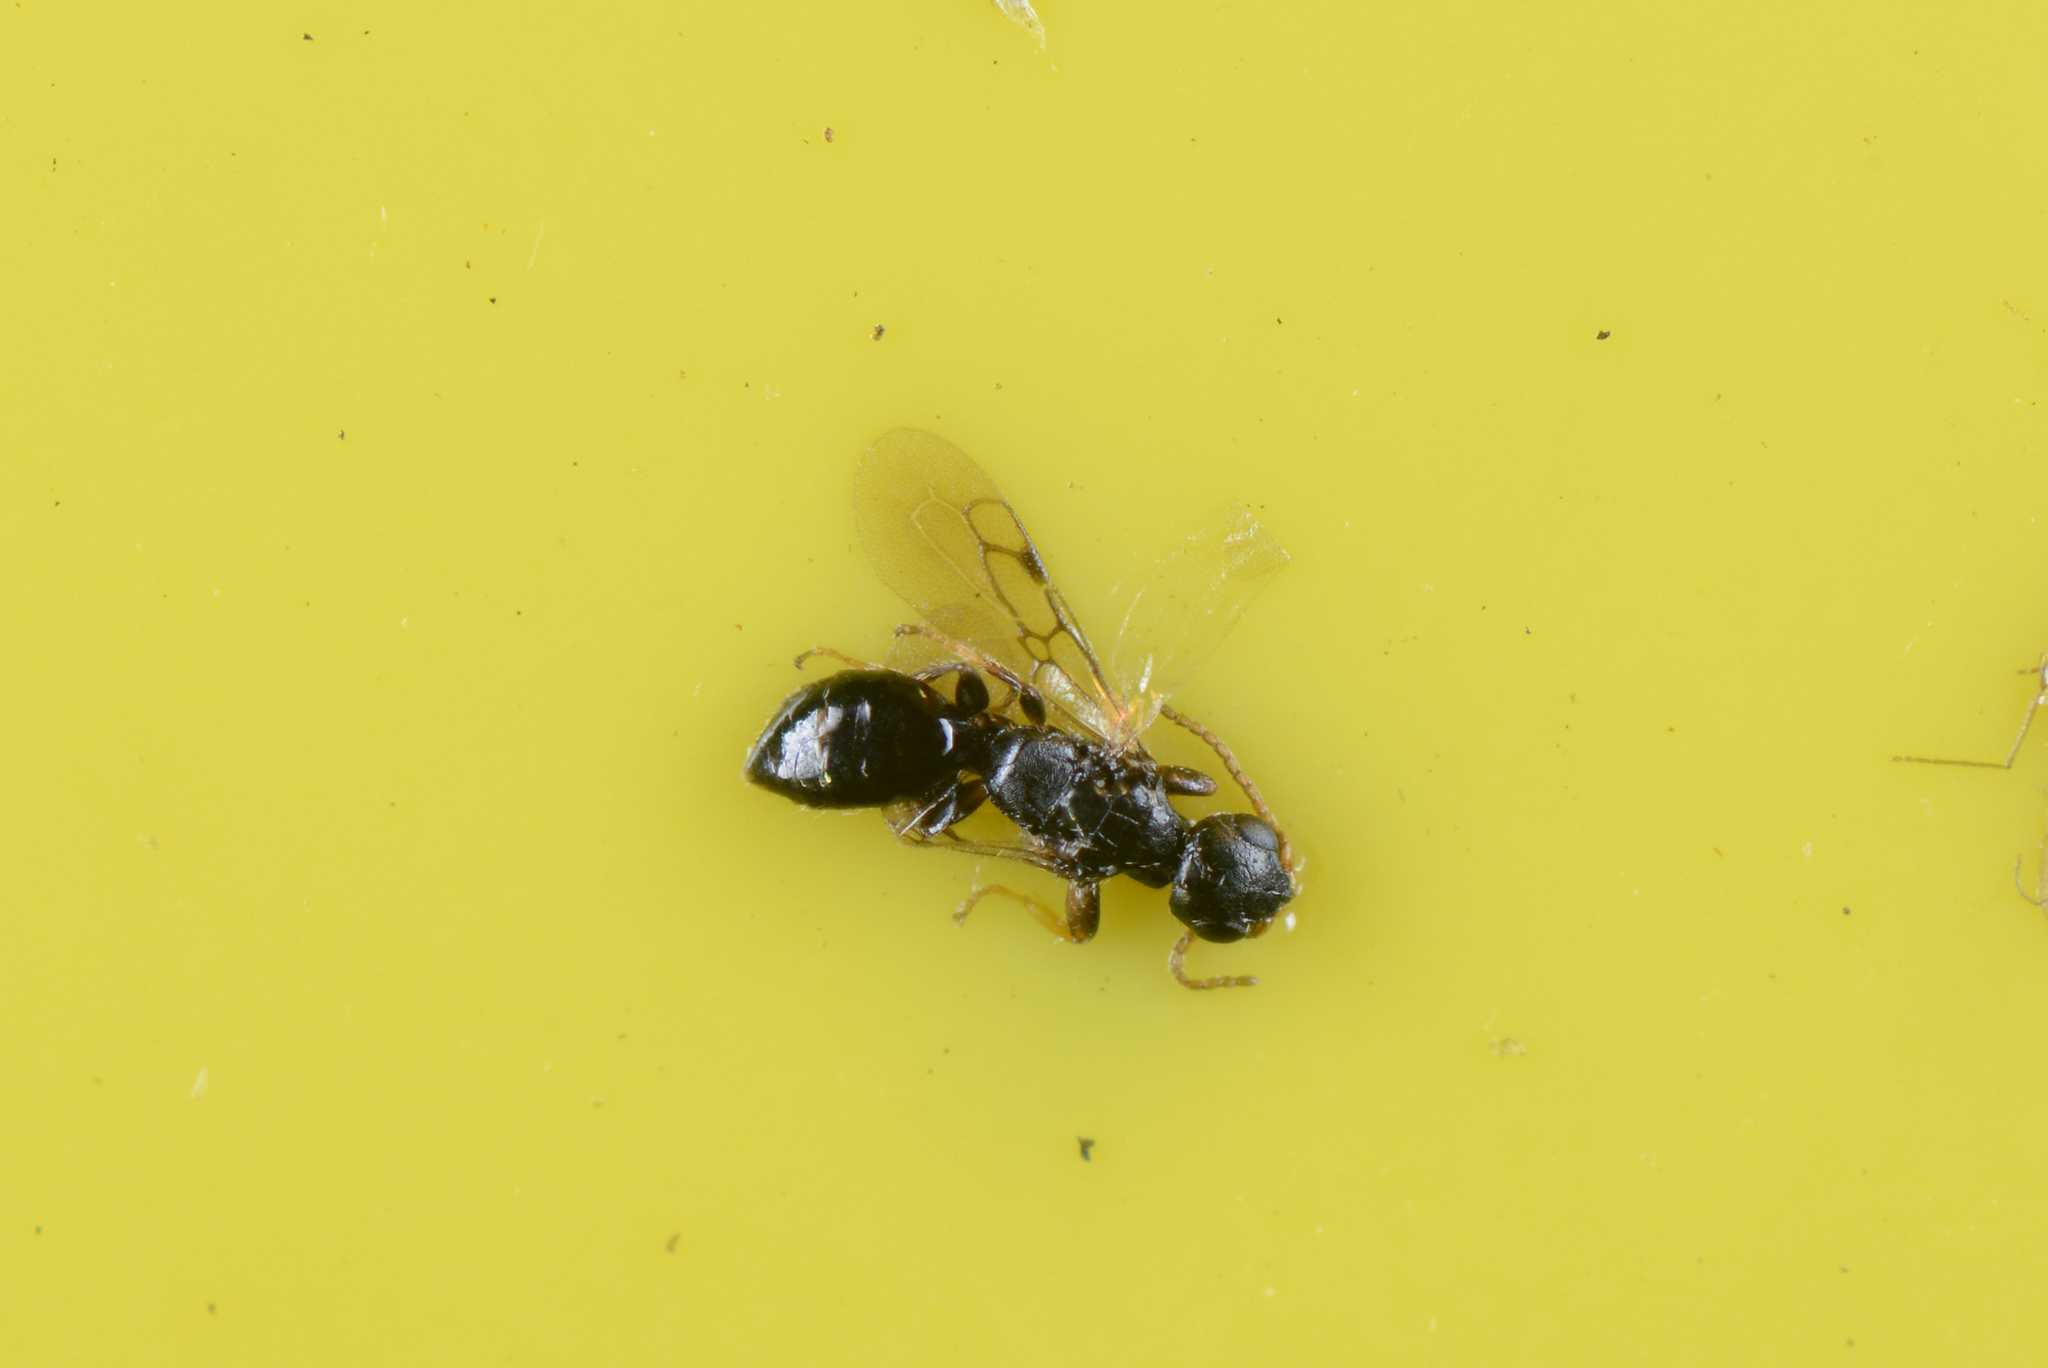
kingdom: Animalia
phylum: Arthropoda
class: Insecta
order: Hymenoptera
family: Bethylidae
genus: Eupsenella
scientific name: Eupsenella insulana
